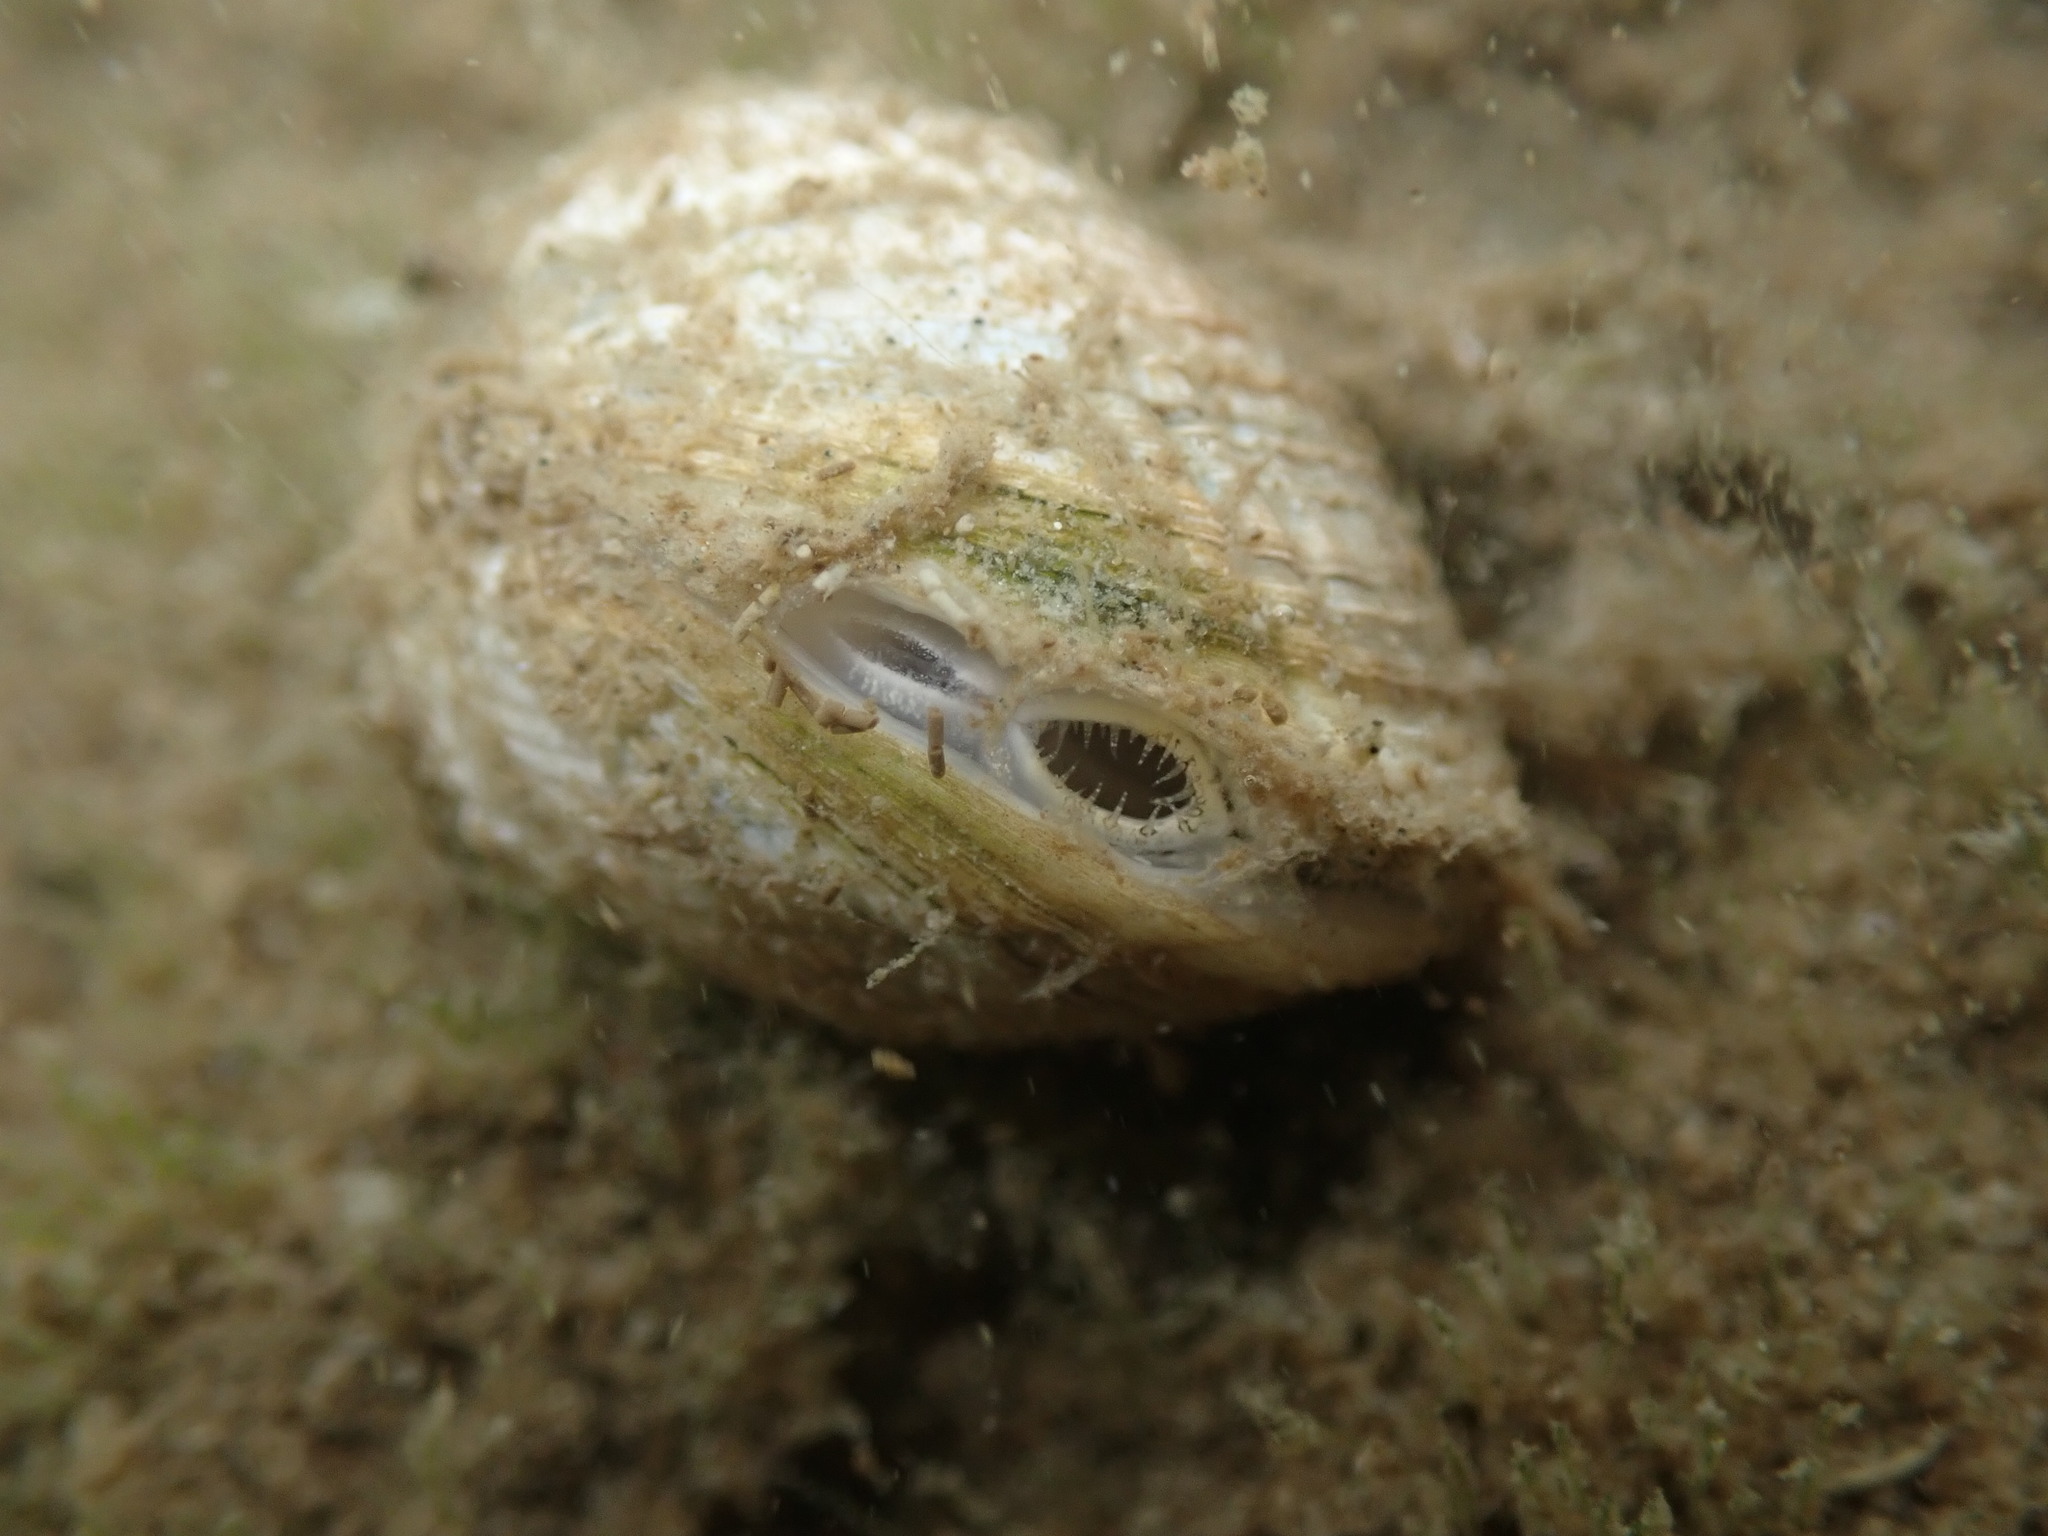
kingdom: Animalia
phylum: Mollusca
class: Bivalvia
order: Venerida
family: Veneridae
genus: Austrovenus
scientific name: Austrovenus stutchburyi
